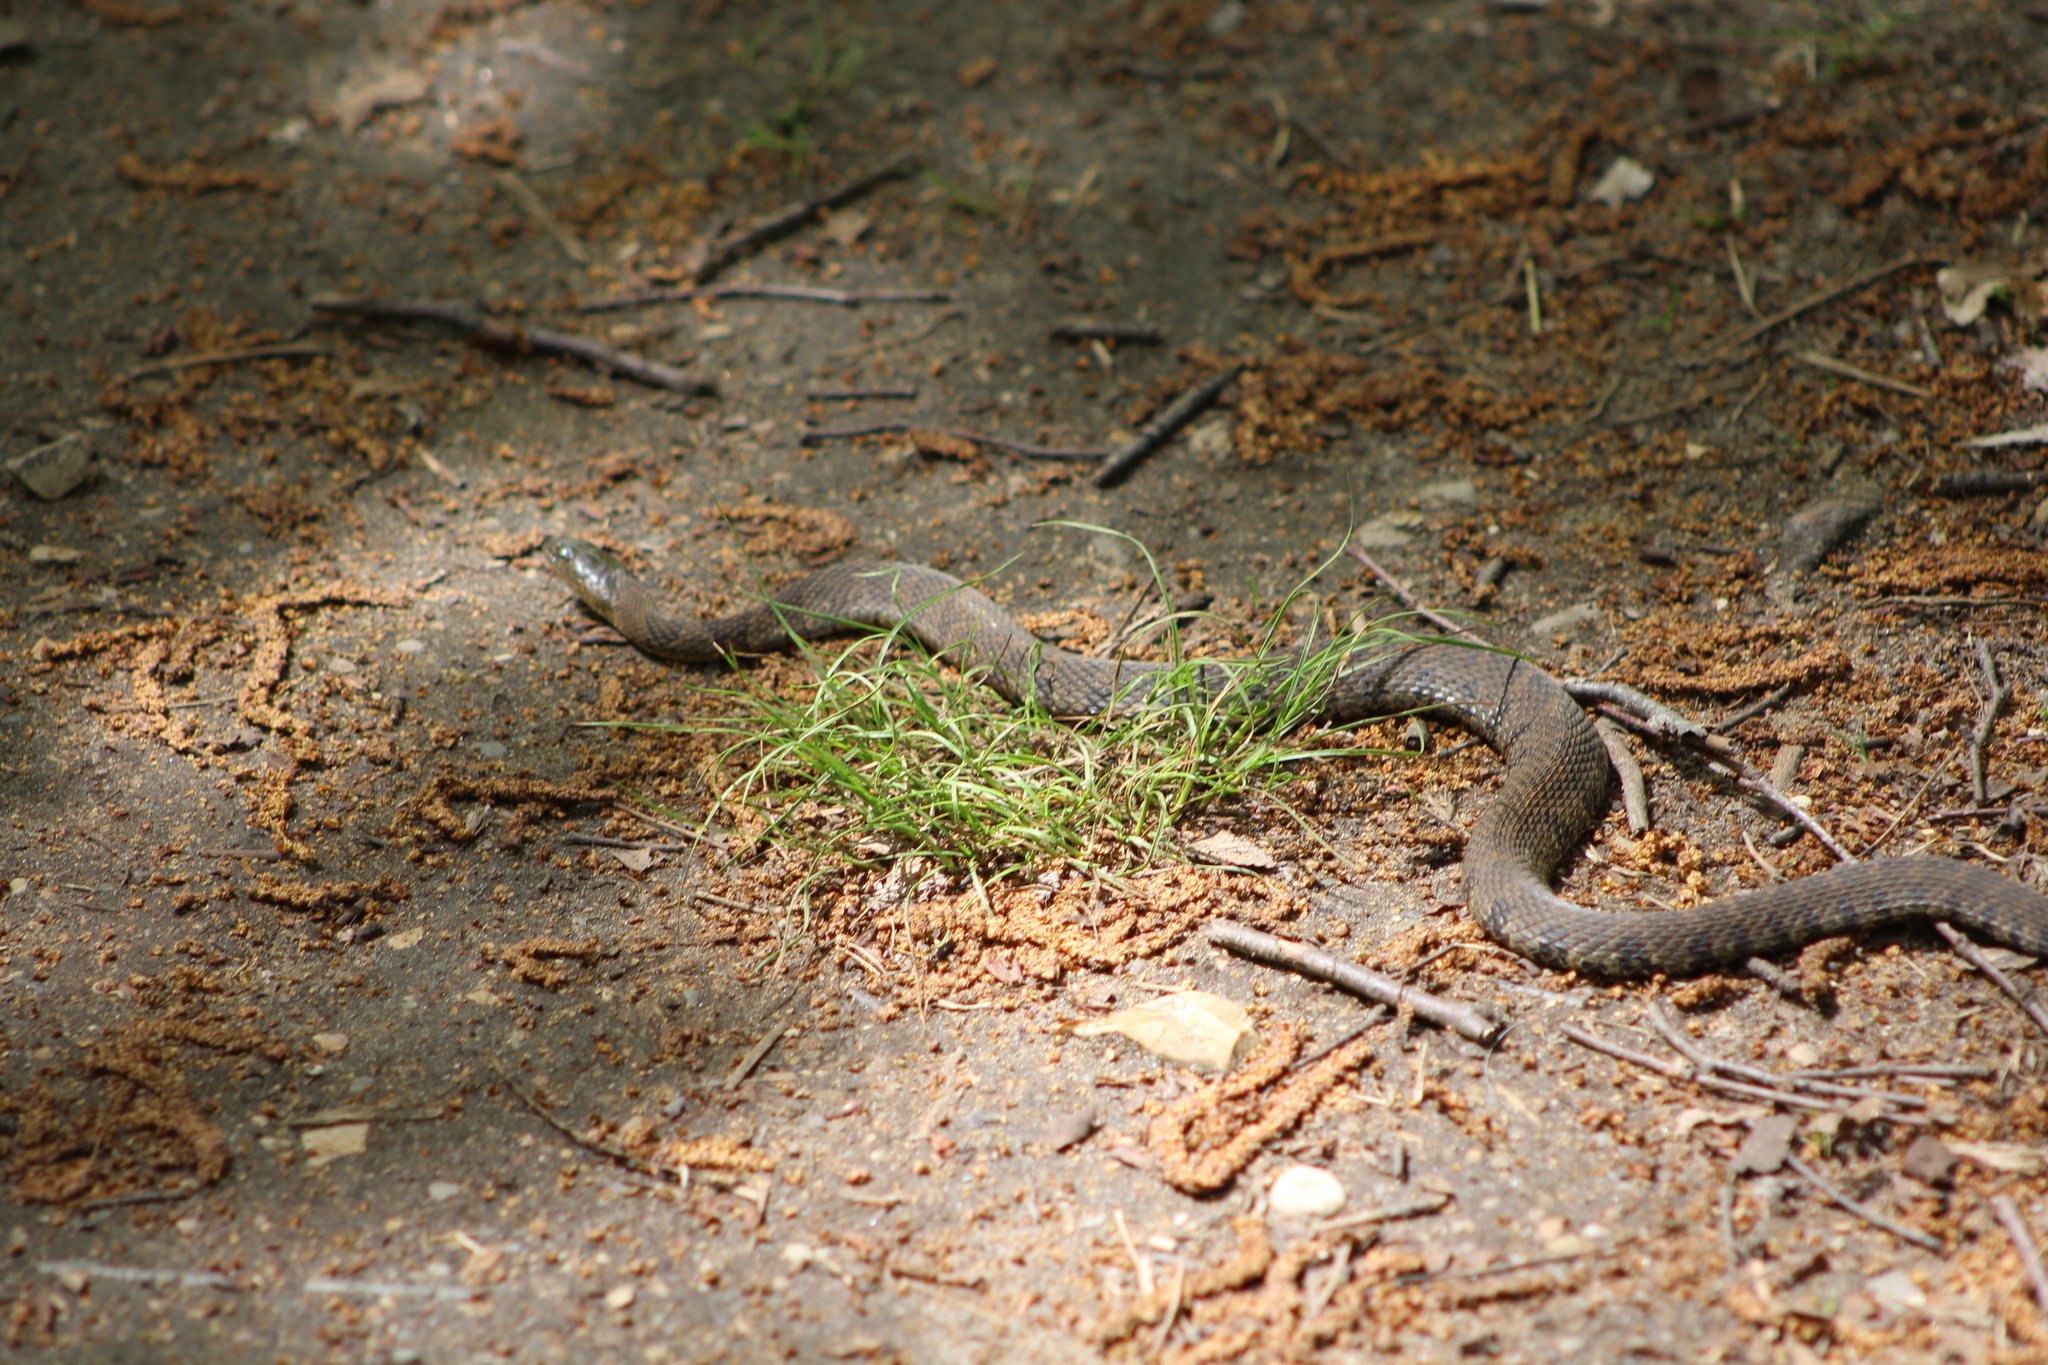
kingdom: Animalia
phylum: Chordata
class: Squamata
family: Colubridae
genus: Nerodia
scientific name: Nerodia sipedon
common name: Northern water snake
